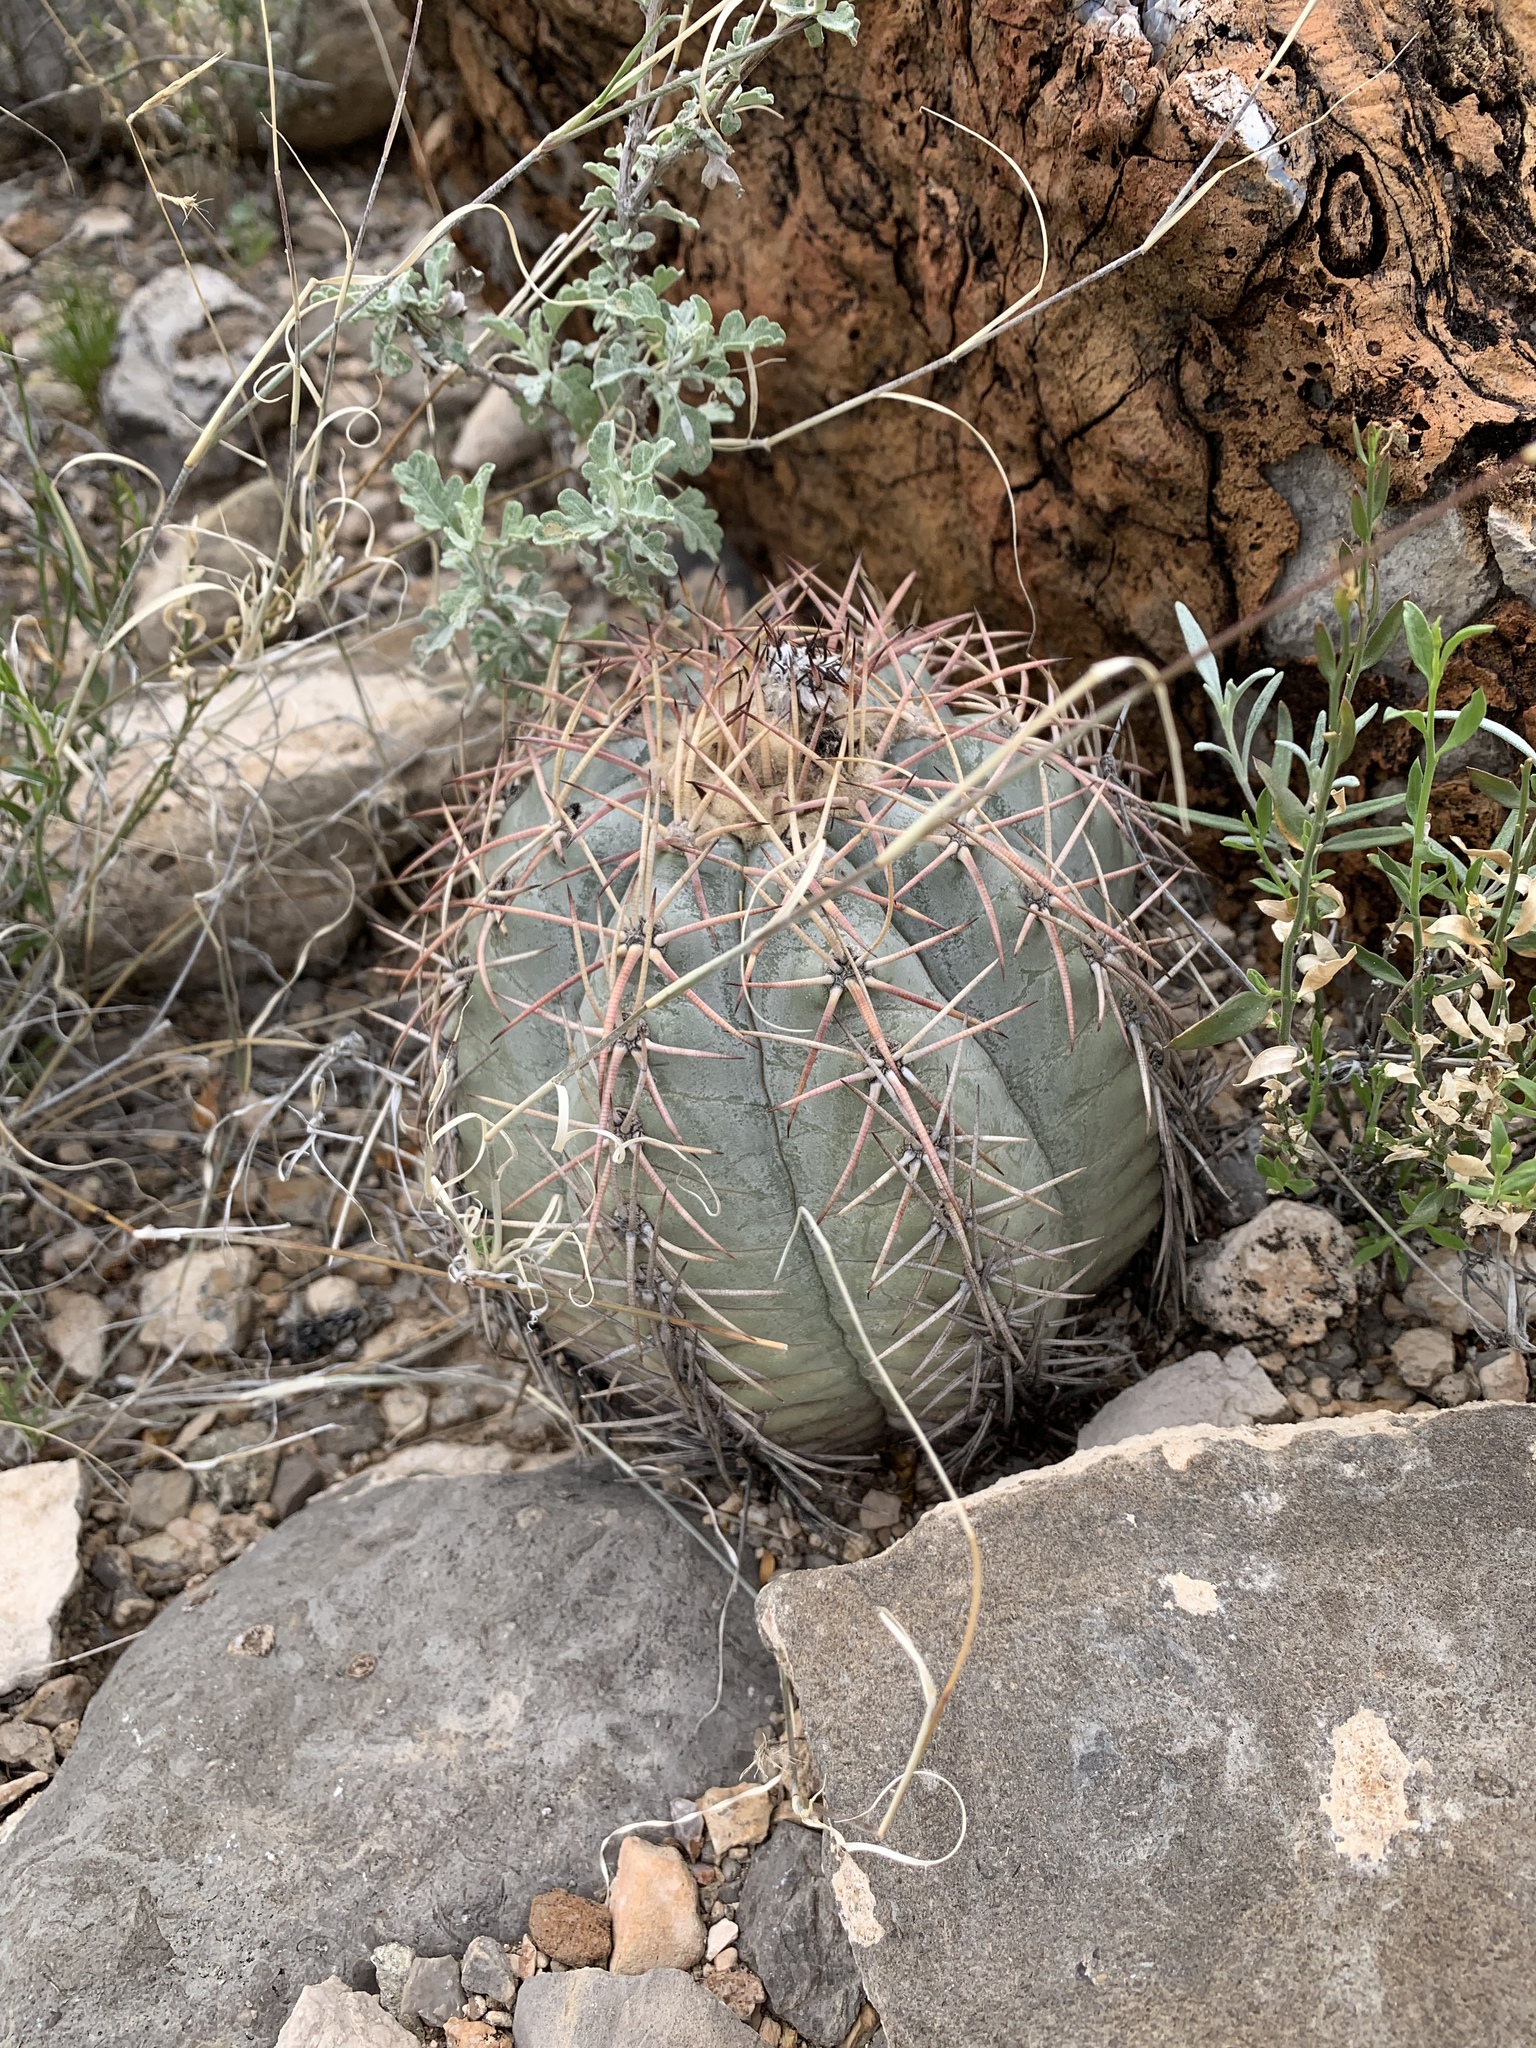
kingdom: Plantae
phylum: Tracheophyta
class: Magnoliopsida
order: Caryophyllales
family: Cactaceae
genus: Echinocactus
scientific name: Echinocactus horizonthalonius
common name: Devilshead
